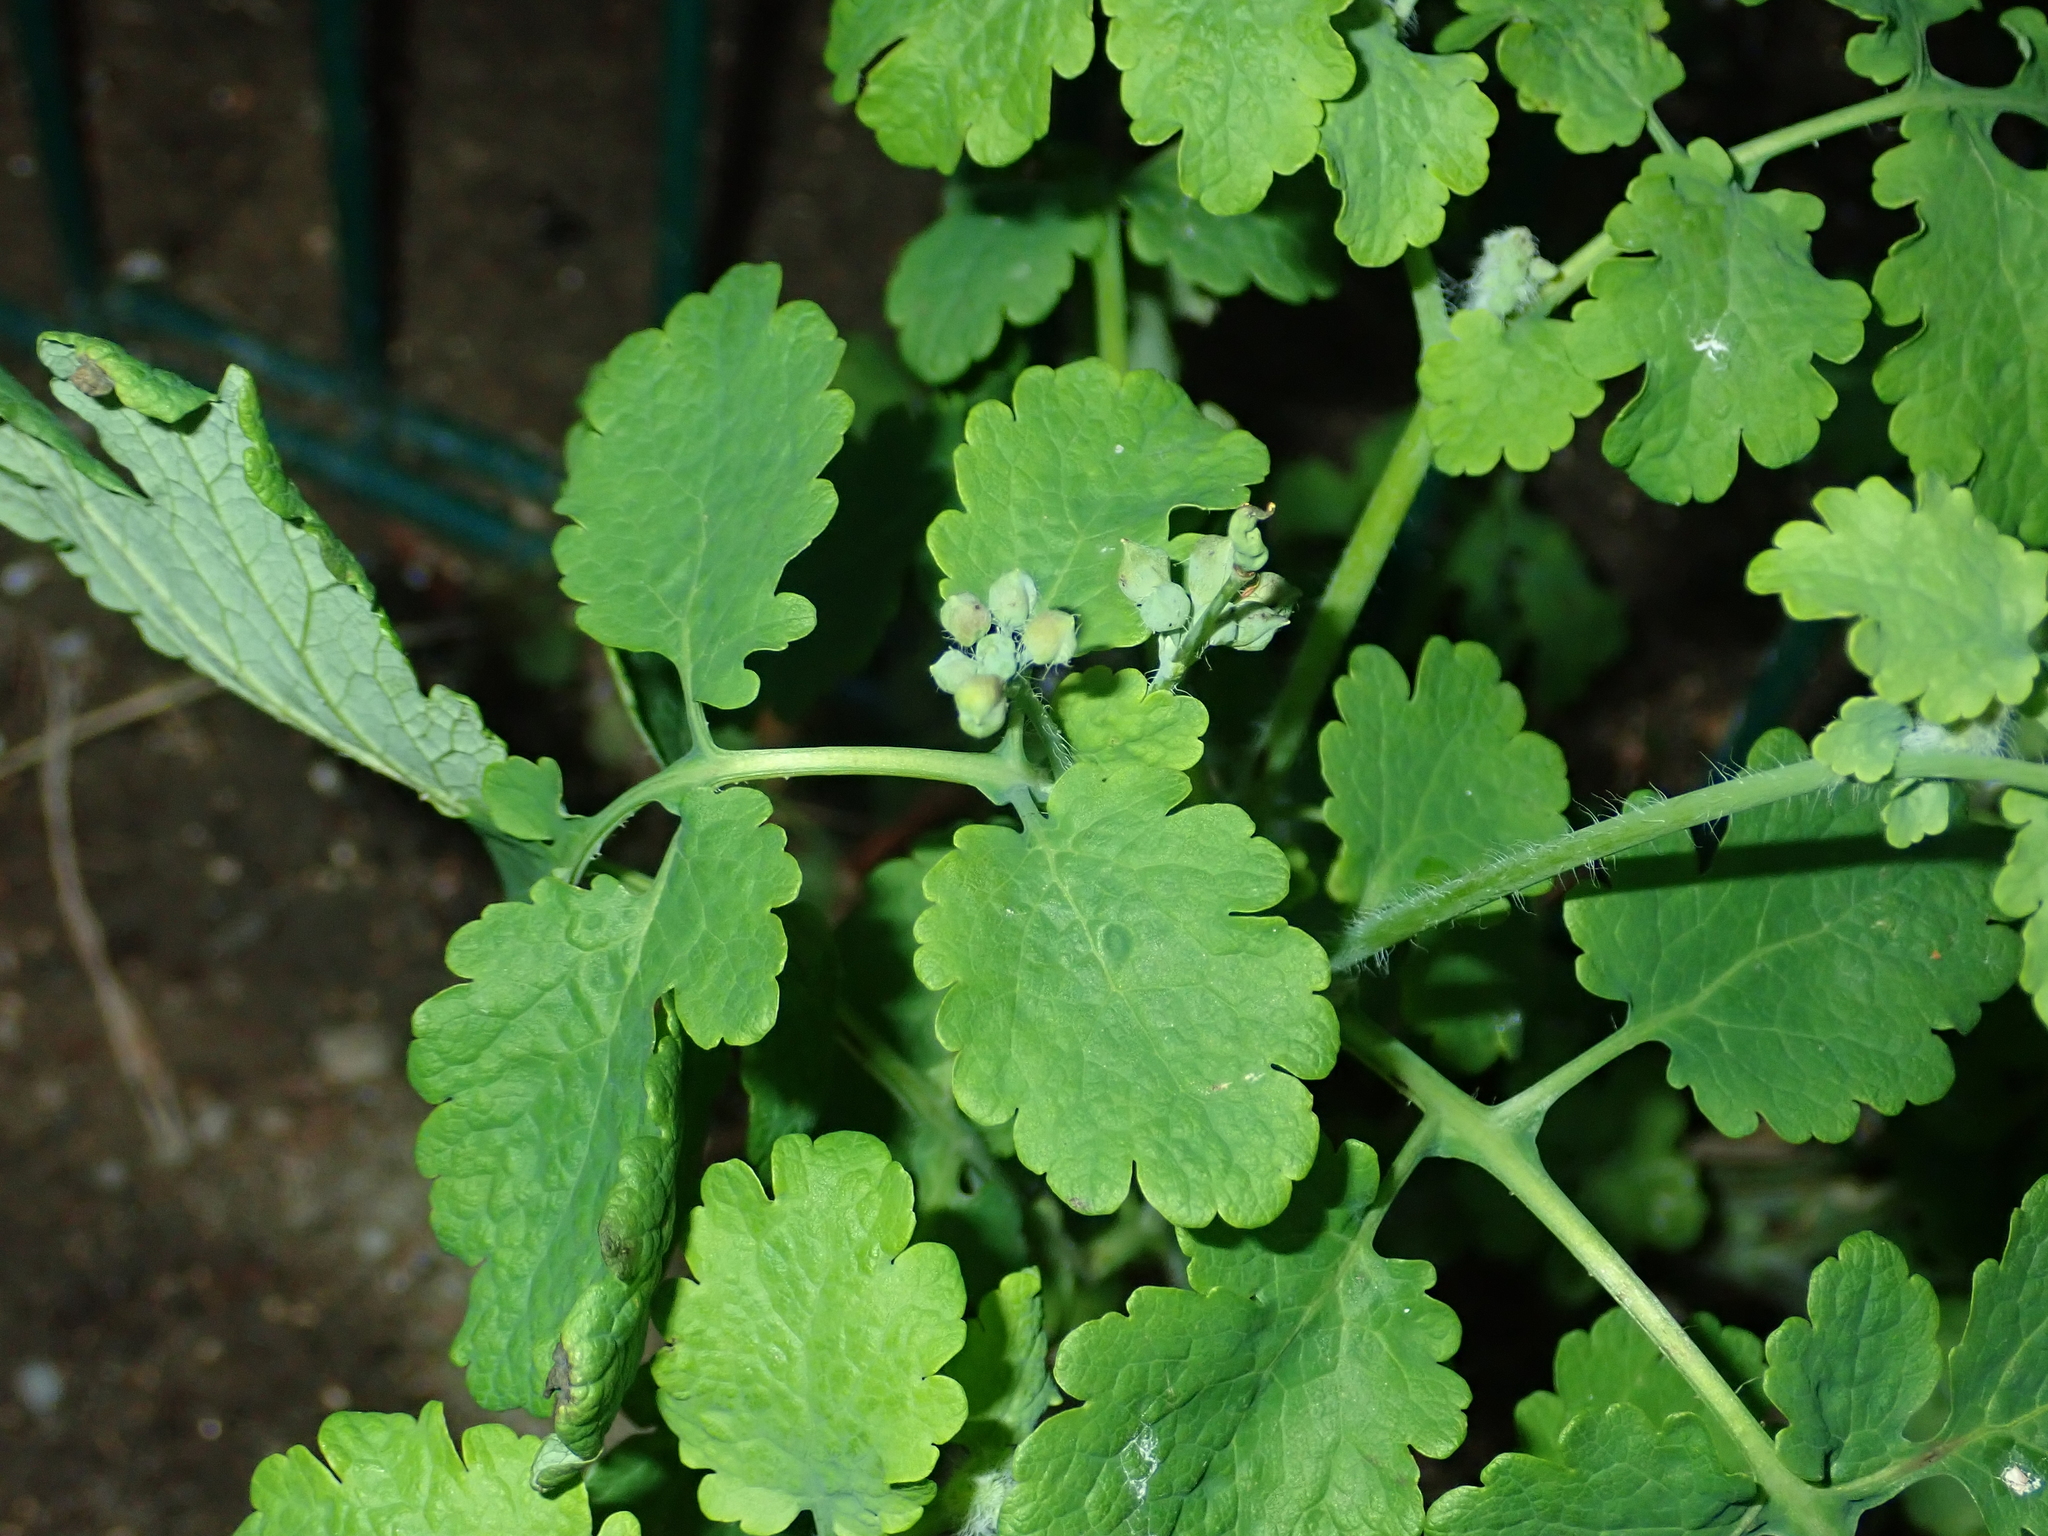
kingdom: Plantae
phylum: Tracheophyta
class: Magnoliopsida
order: Ranunculales
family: Papaveraceae
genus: Chelidonium
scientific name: Chelidonium majus
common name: Greater celandine
